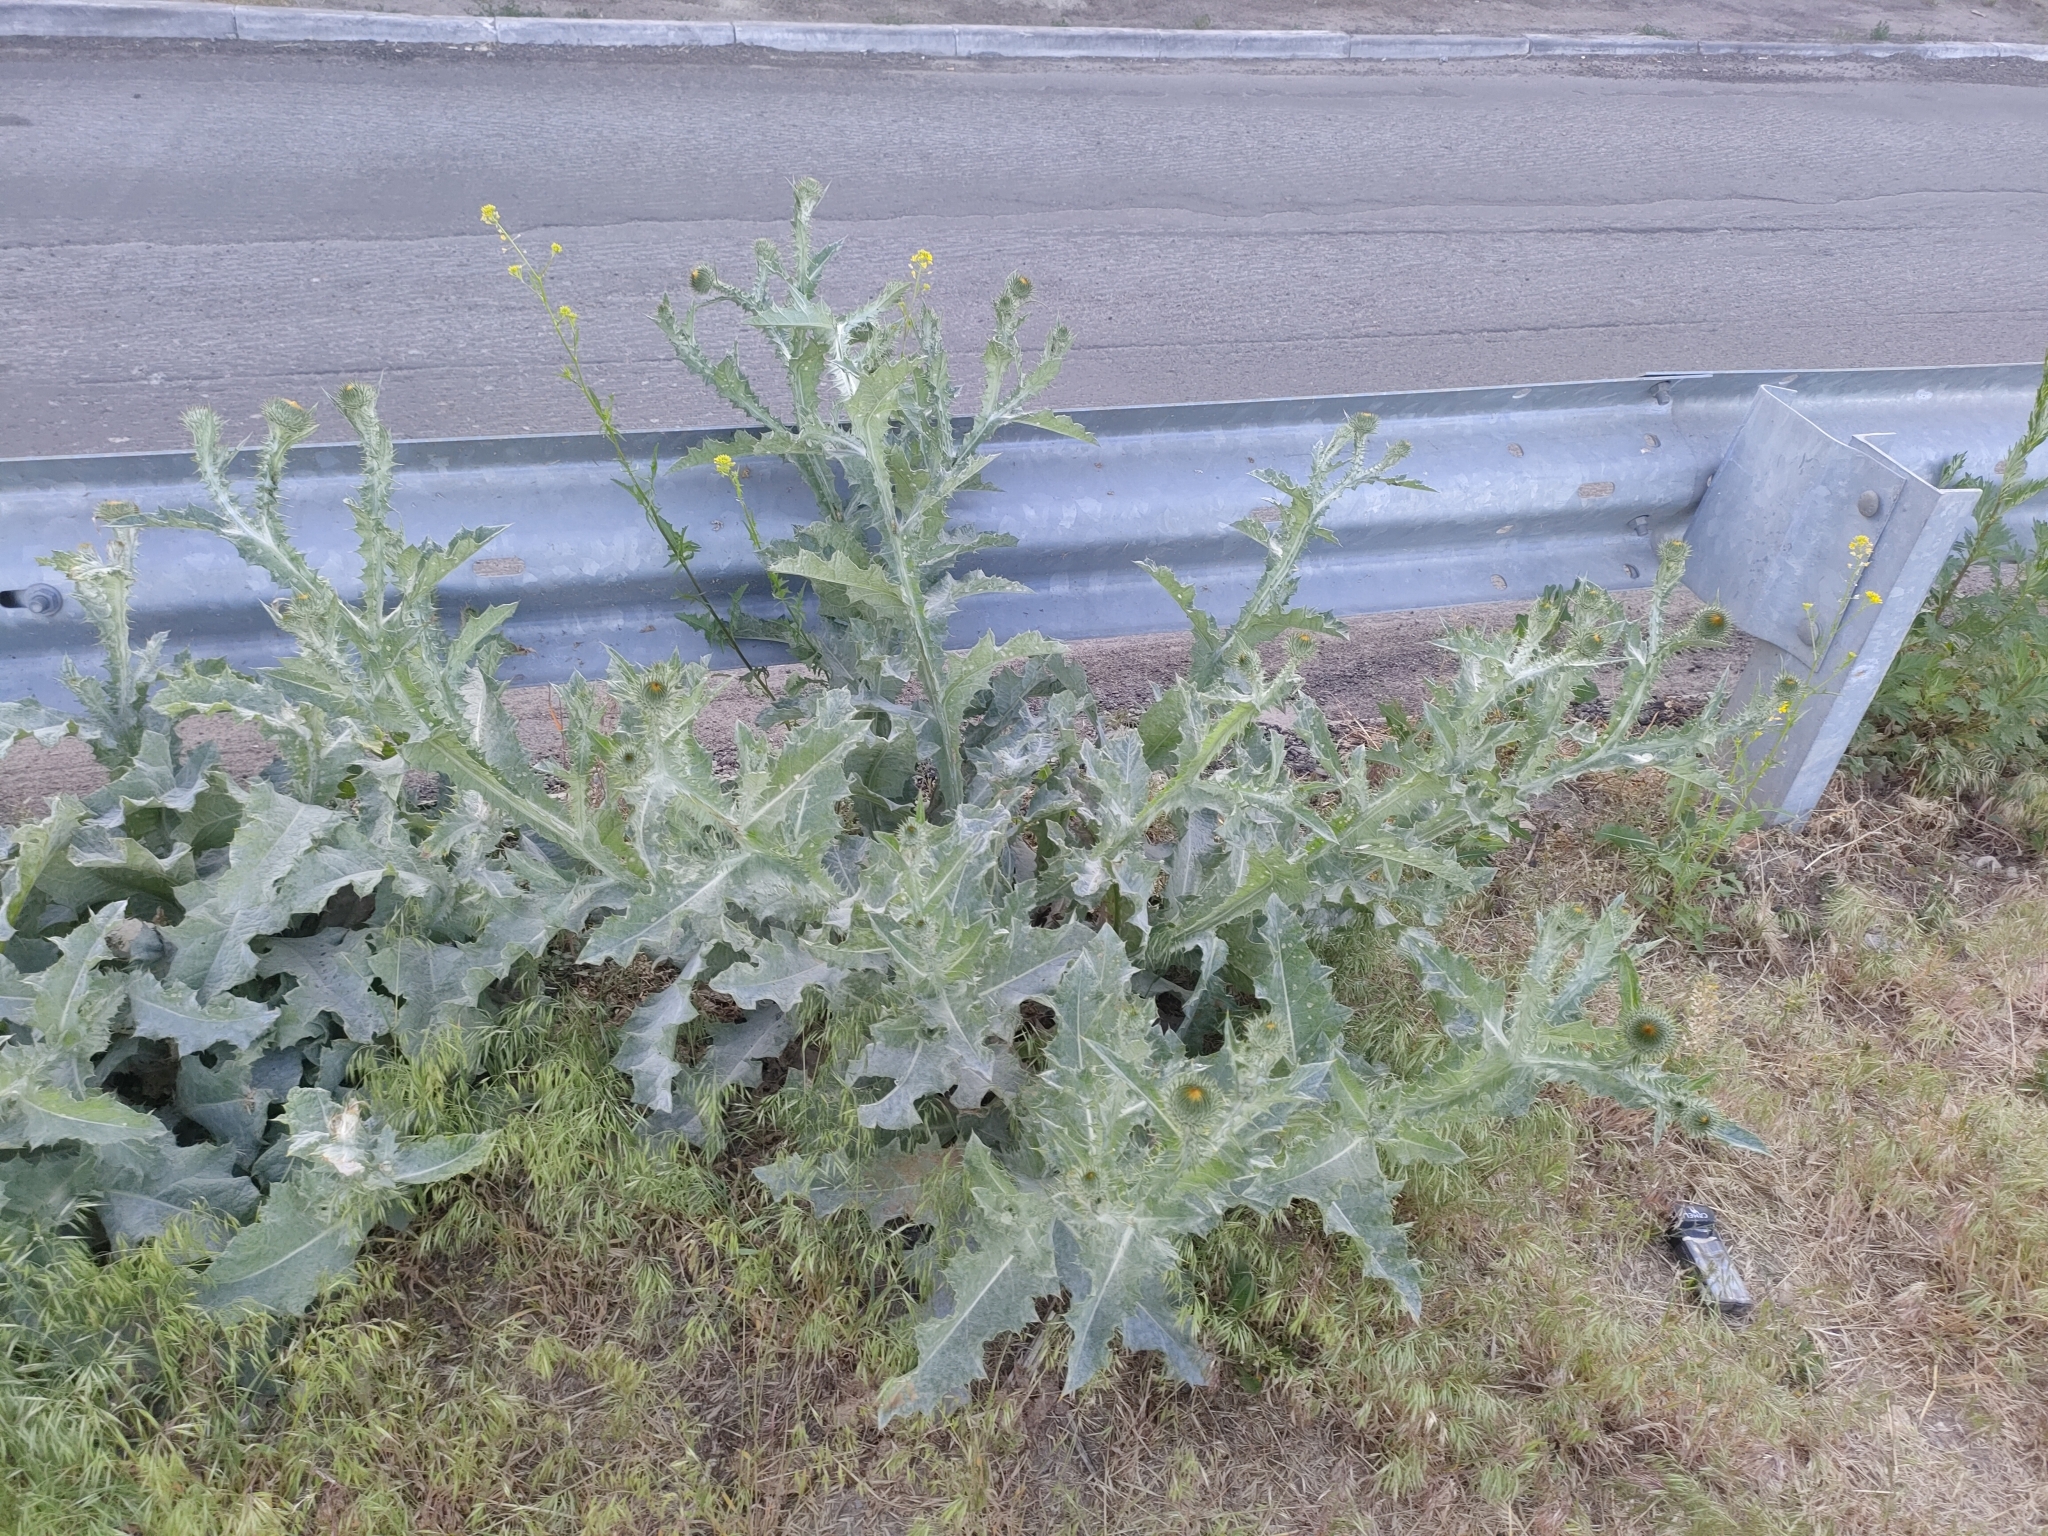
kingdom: Plantae
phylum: Tracheophyta
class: Magnoliopsida
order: Asterales
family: Asteraceae
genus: Onopordum
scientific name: Onopordum acanthium
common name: Scotch thistle
